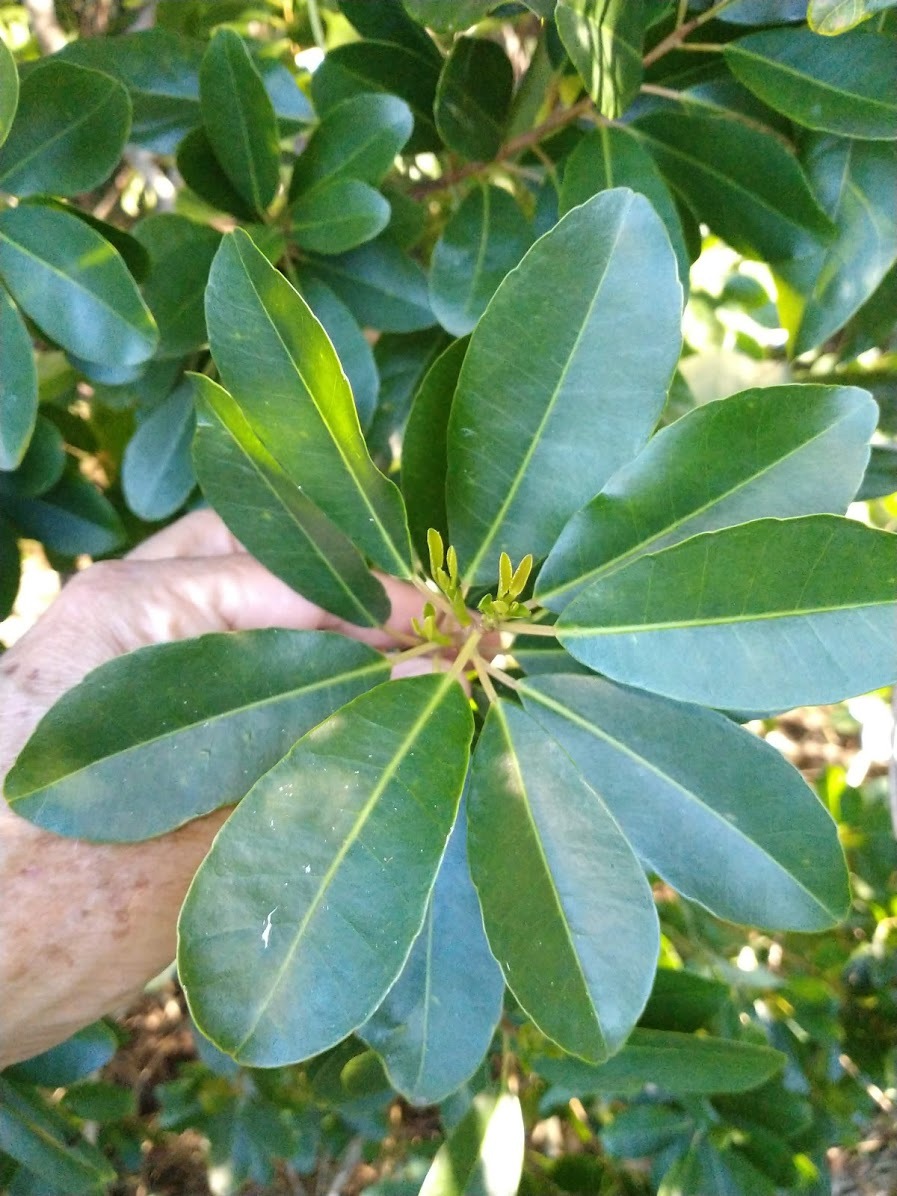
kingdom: Plantae
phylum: Tracheophyta
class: Magnoliopsida
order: Malpighiales
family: Euphorbiaceae
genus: Excoecaria
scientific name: Excoecaria agallocha
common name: River poisontree
